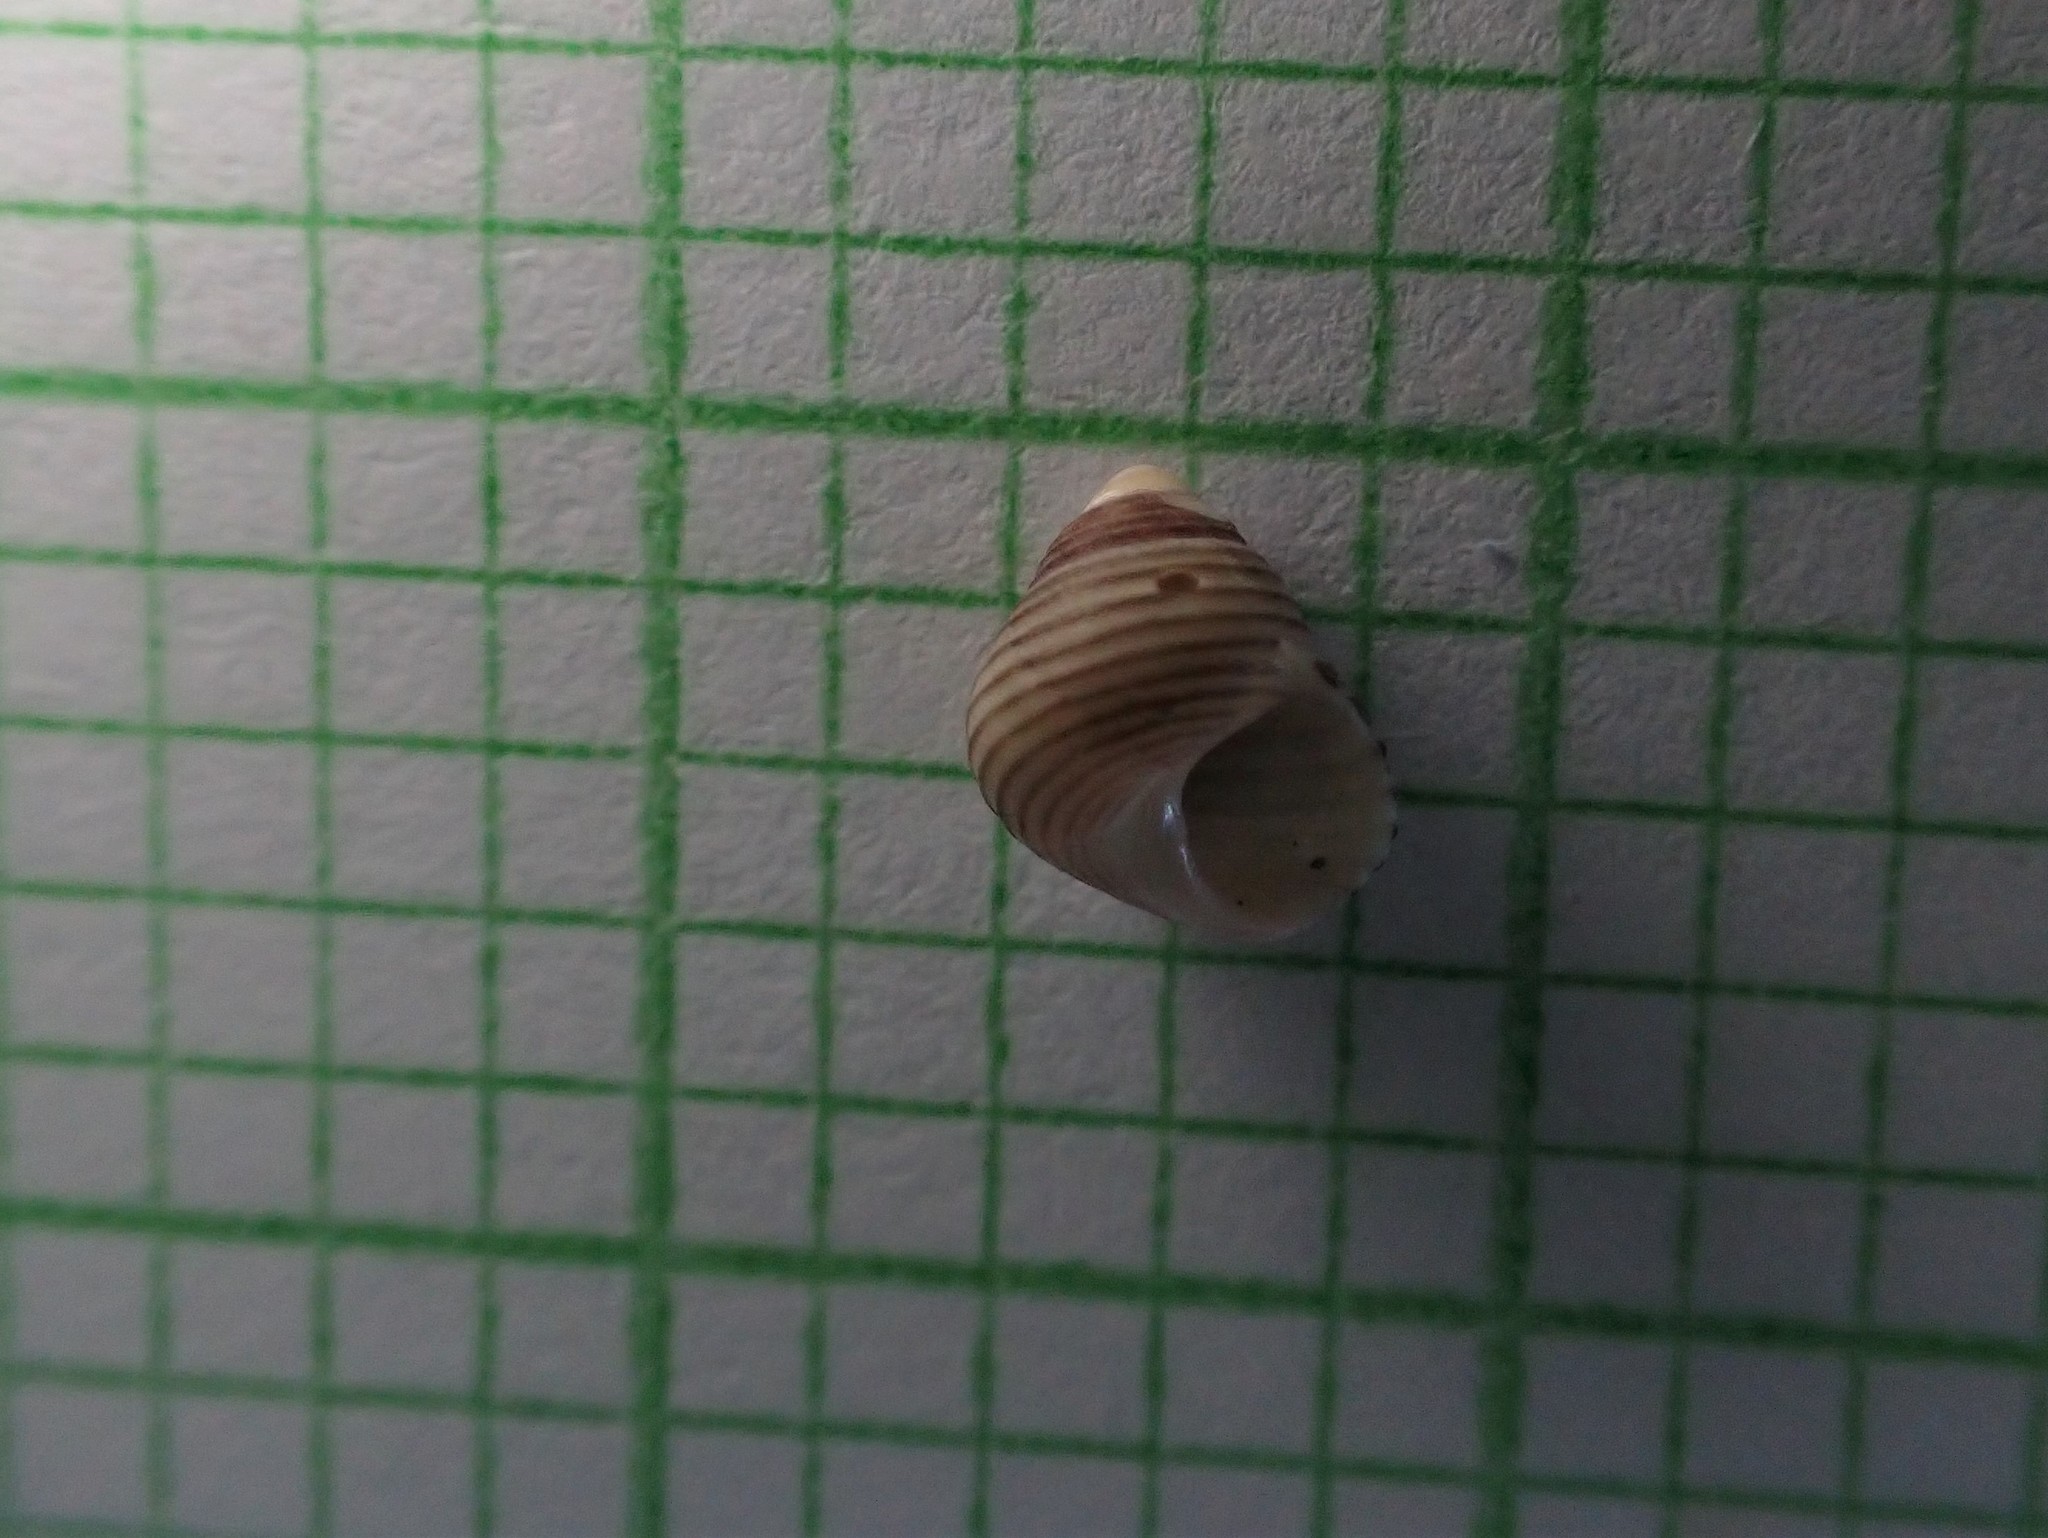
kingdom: Animalia
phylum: Mollusca
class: Gastropoda
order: Trochida
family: Trochidae
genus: Roseaplagis
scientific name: Roseaplagis rufozona
